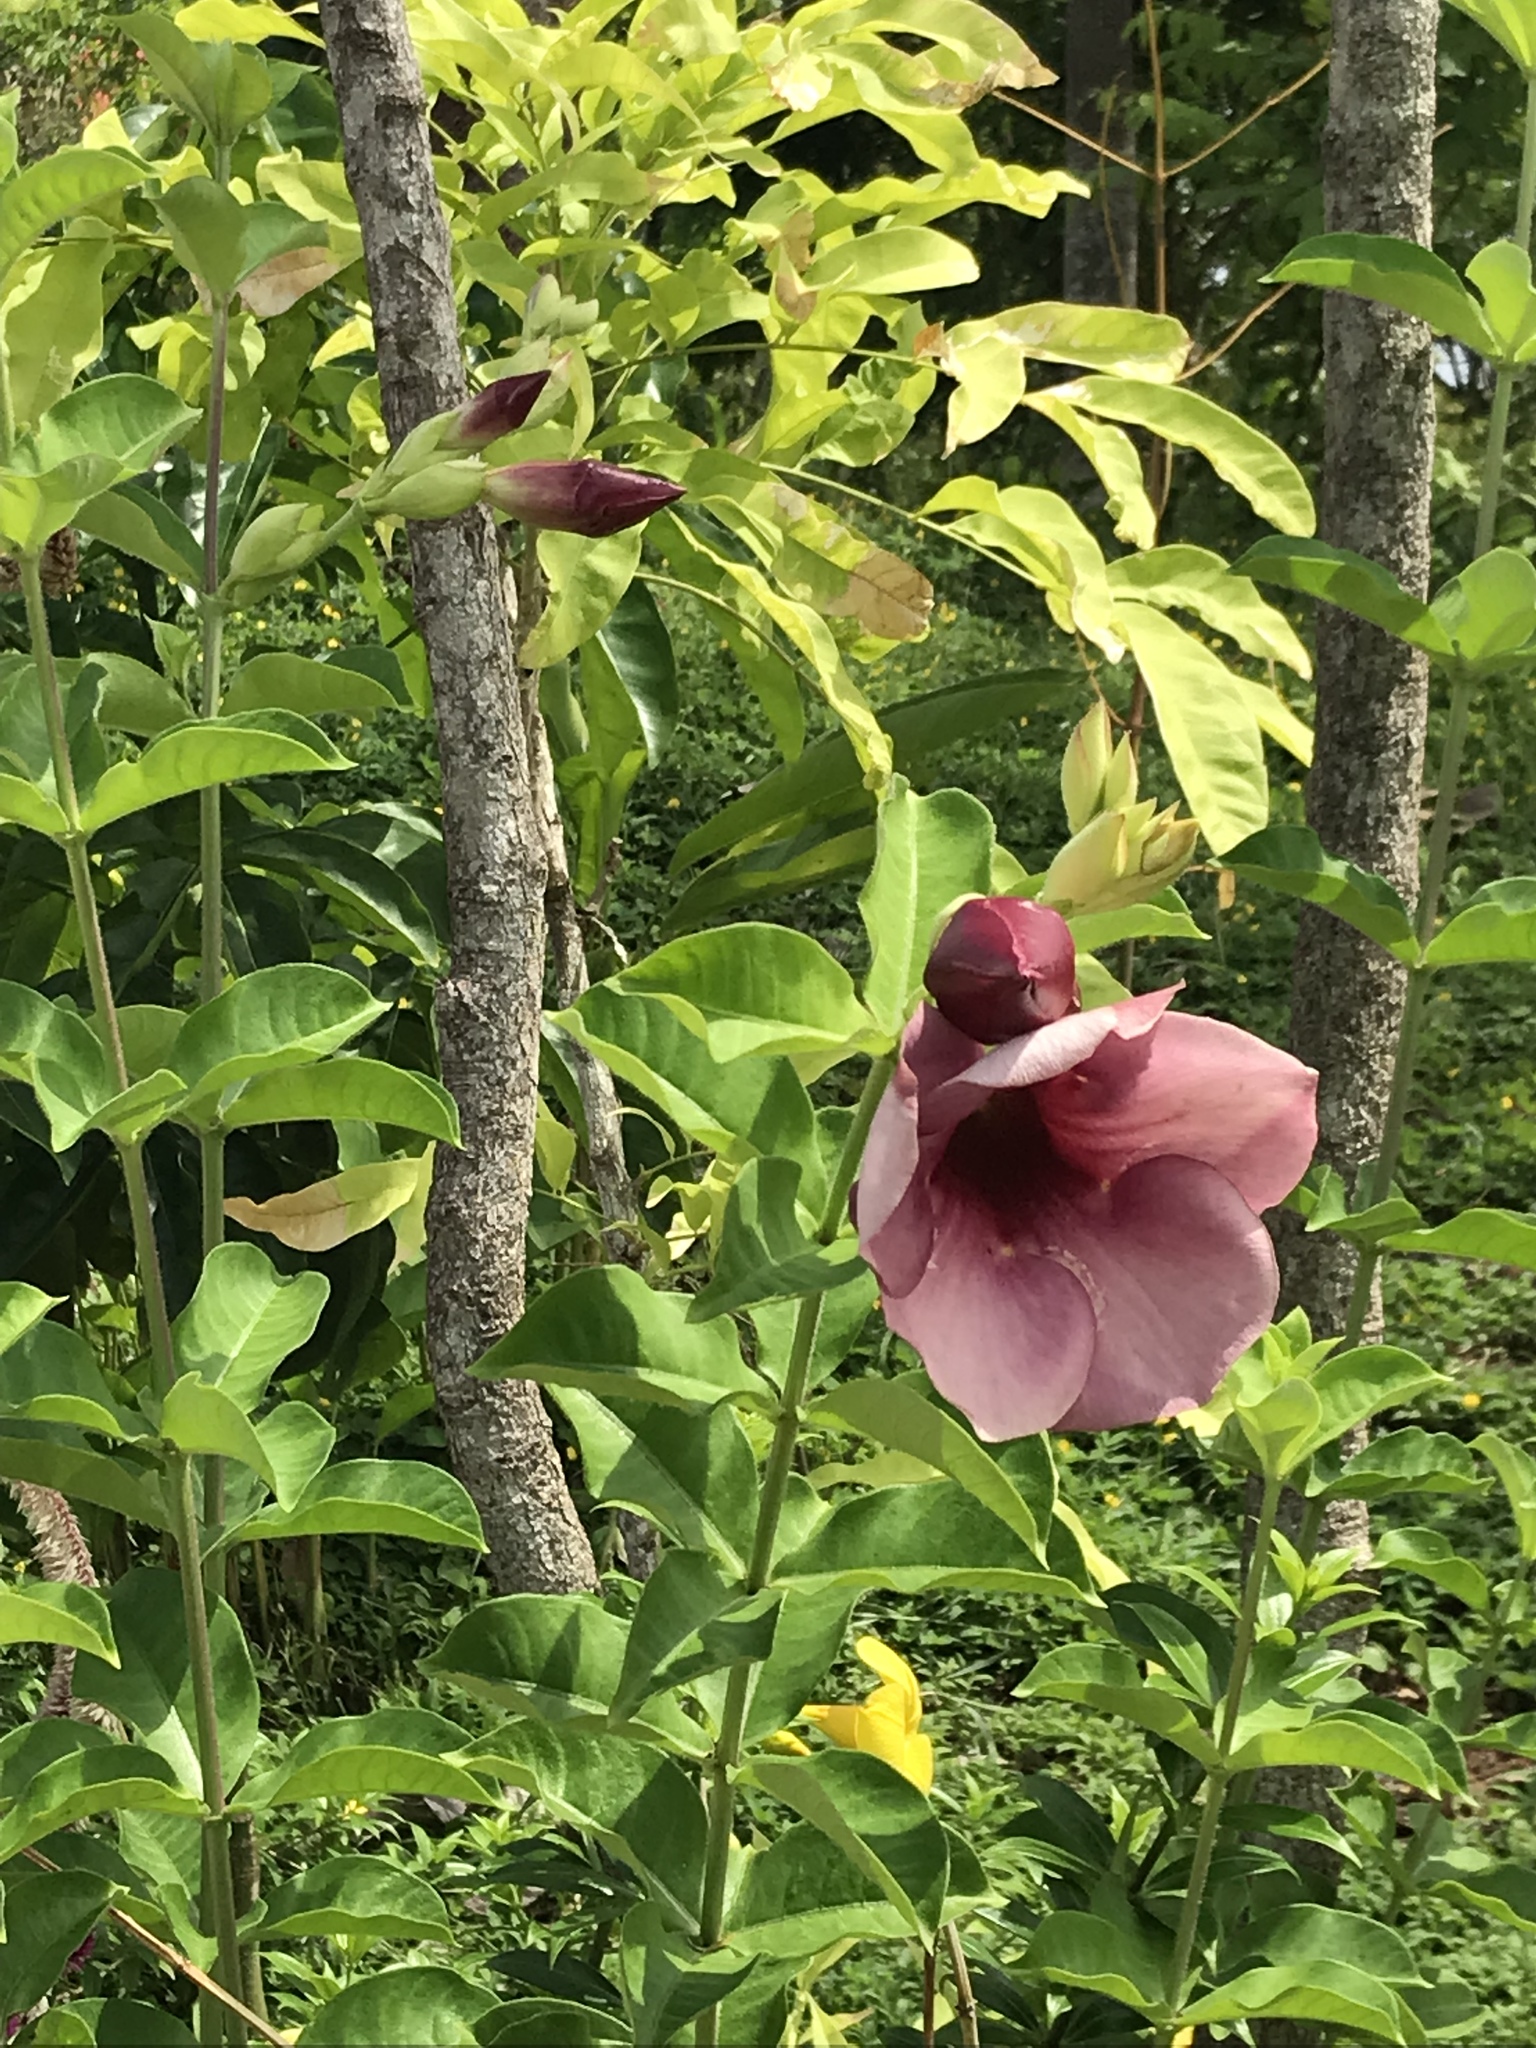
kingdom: Plantae
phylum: Tracheophyta
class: Magnoliopsida
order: Gentianales
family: Apocynaceae
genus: Allamanda
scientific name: Allamanda blanchetii
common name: Purple allamanda
